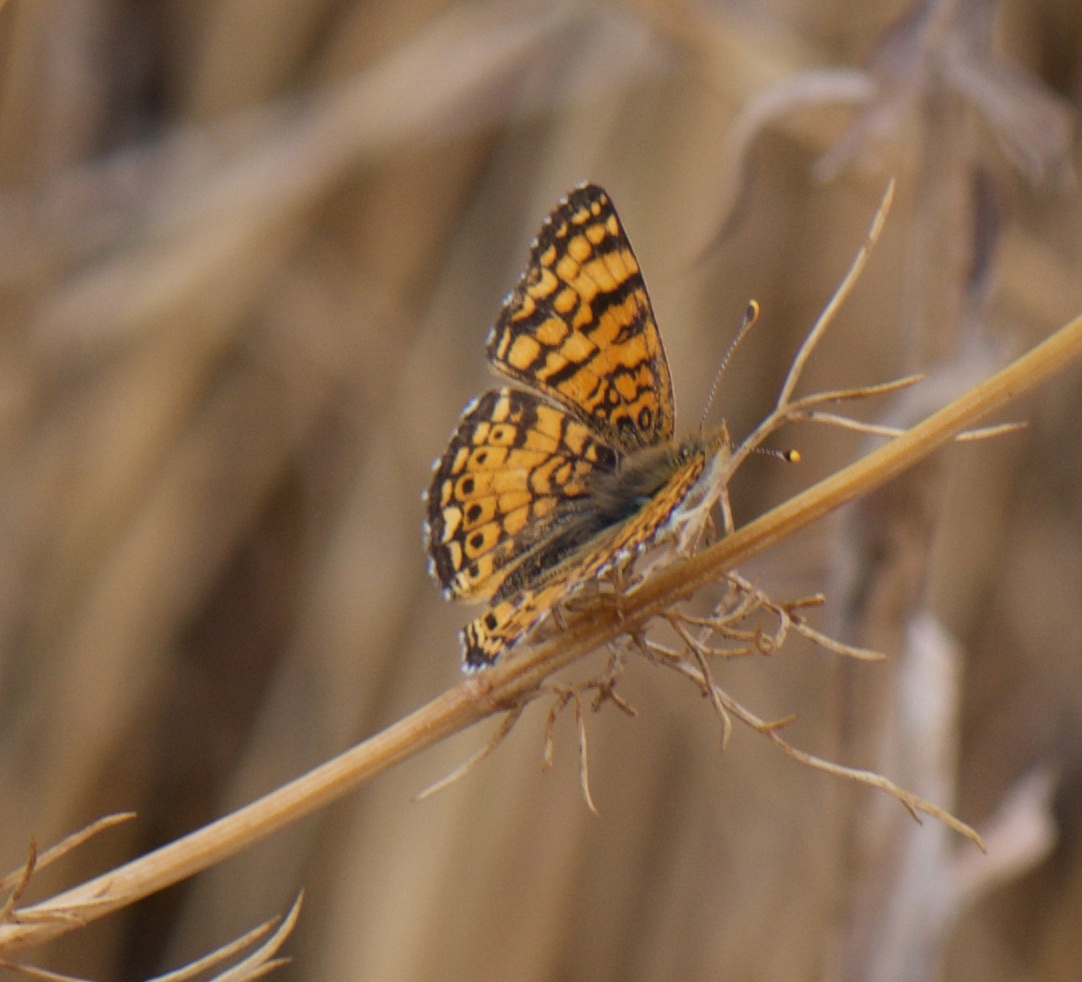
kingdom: Animalia
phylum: Arthropoda
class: Insecta
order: Lepidoptera
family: Nymphalidae
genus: Eresia
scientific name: Eresia aveyrona
